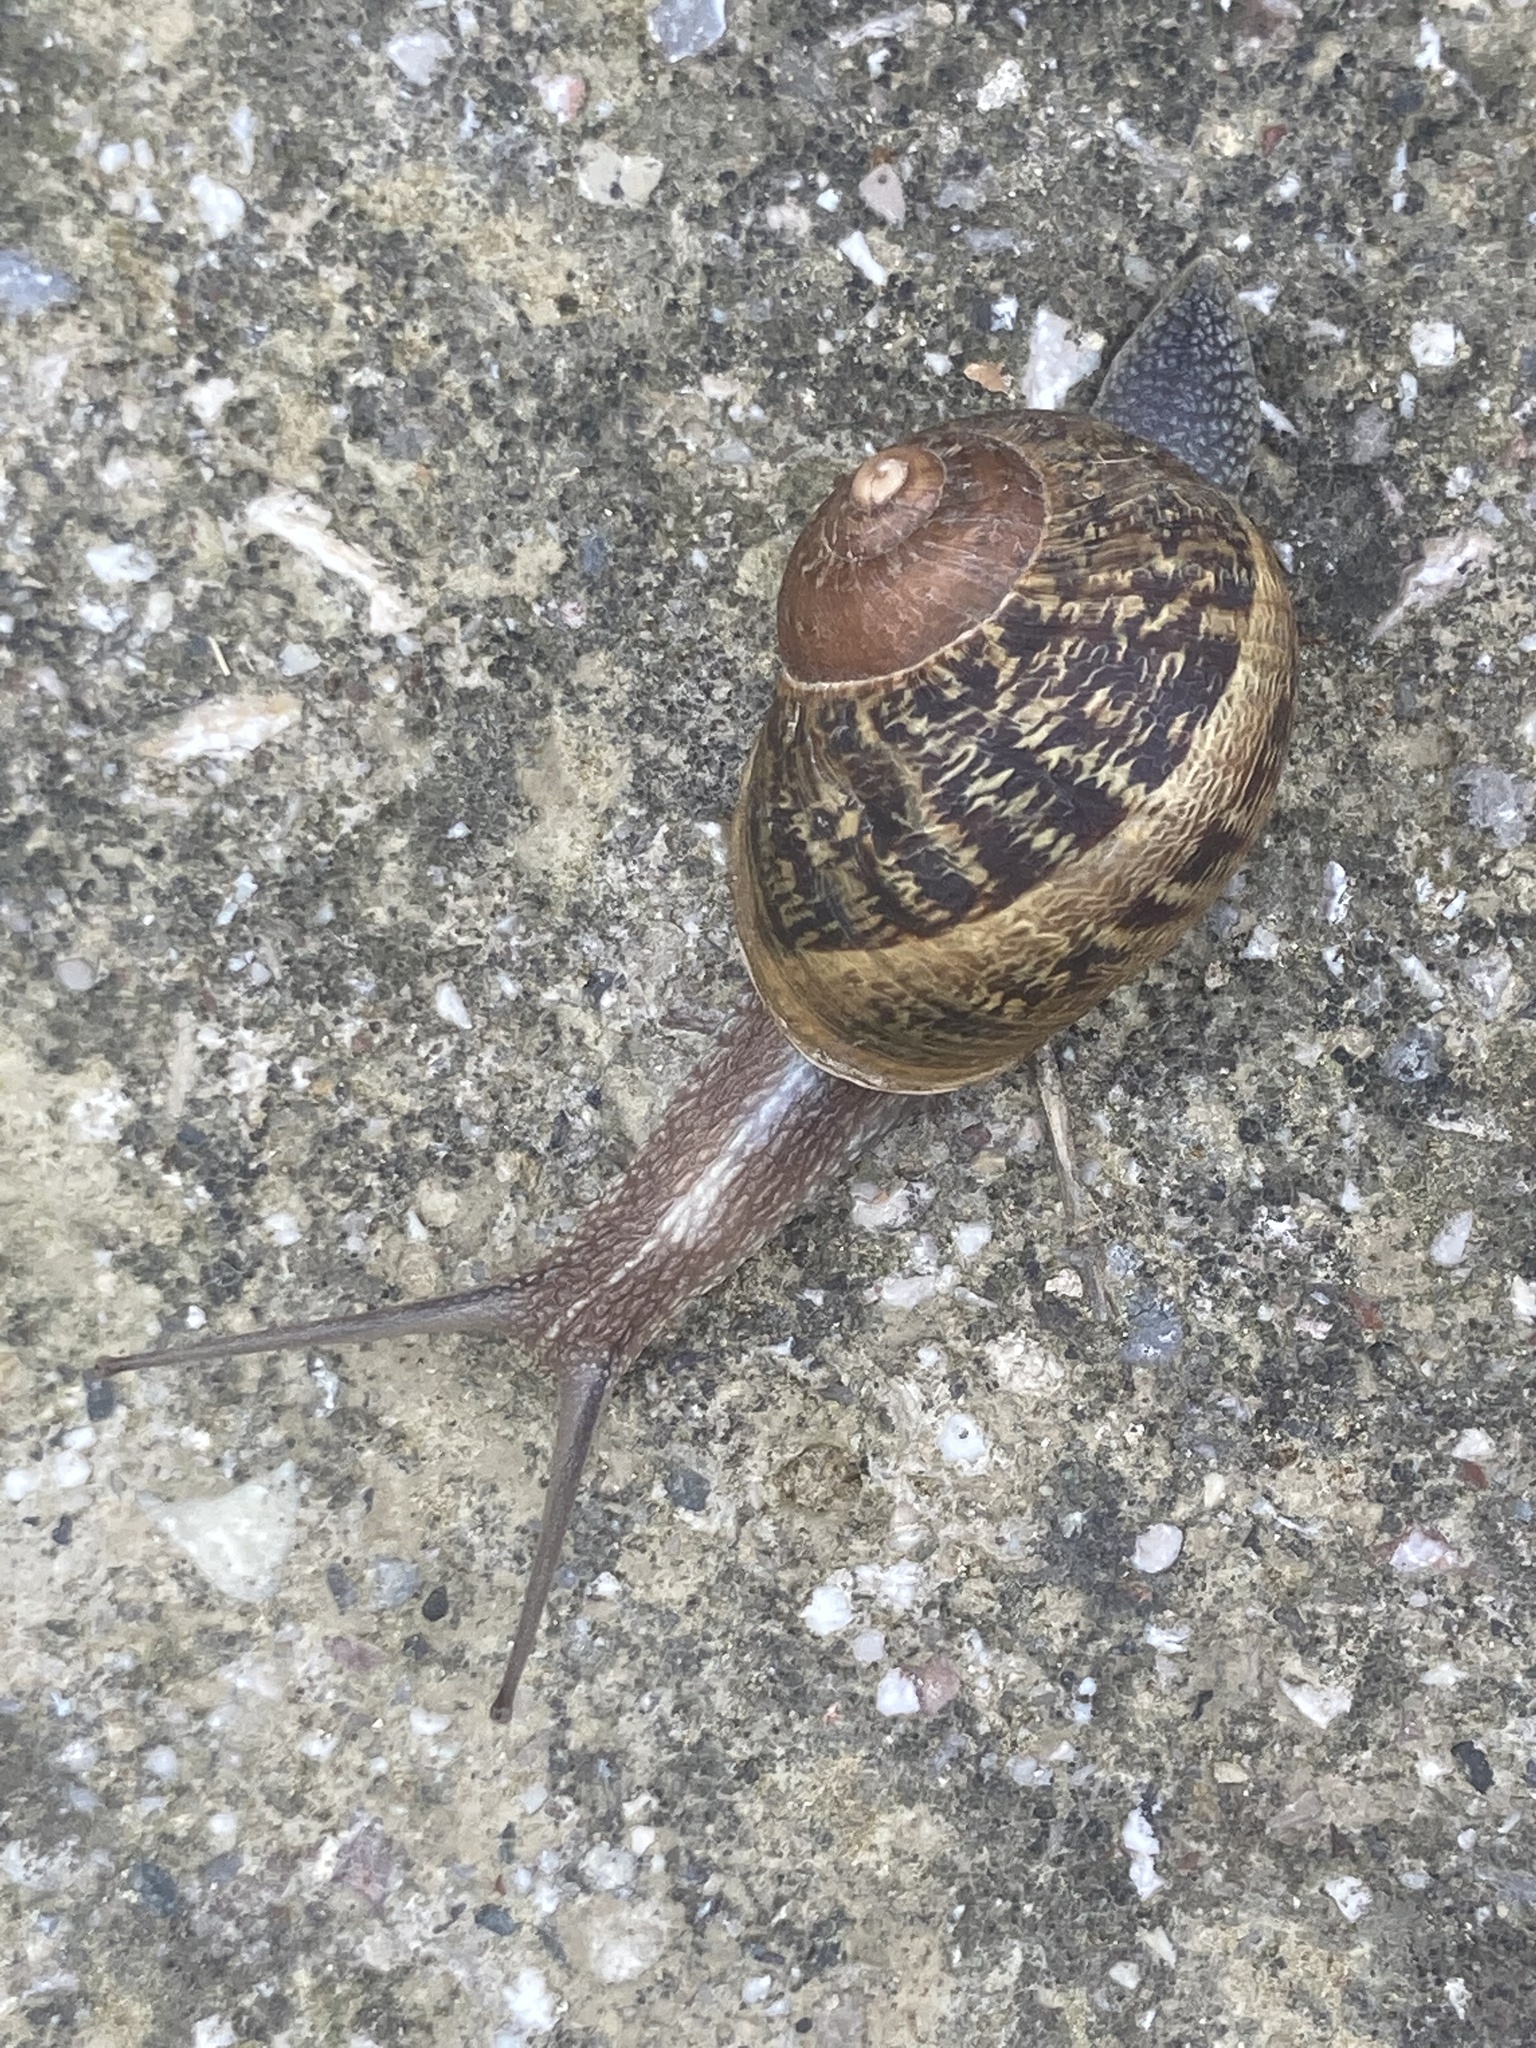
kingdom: Animalia
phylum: Mollusca
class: Gastropoda
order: Stylommatophora
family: Helicidae
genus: Cornu
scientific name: Cornu aspersum
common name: Brown garden snail
